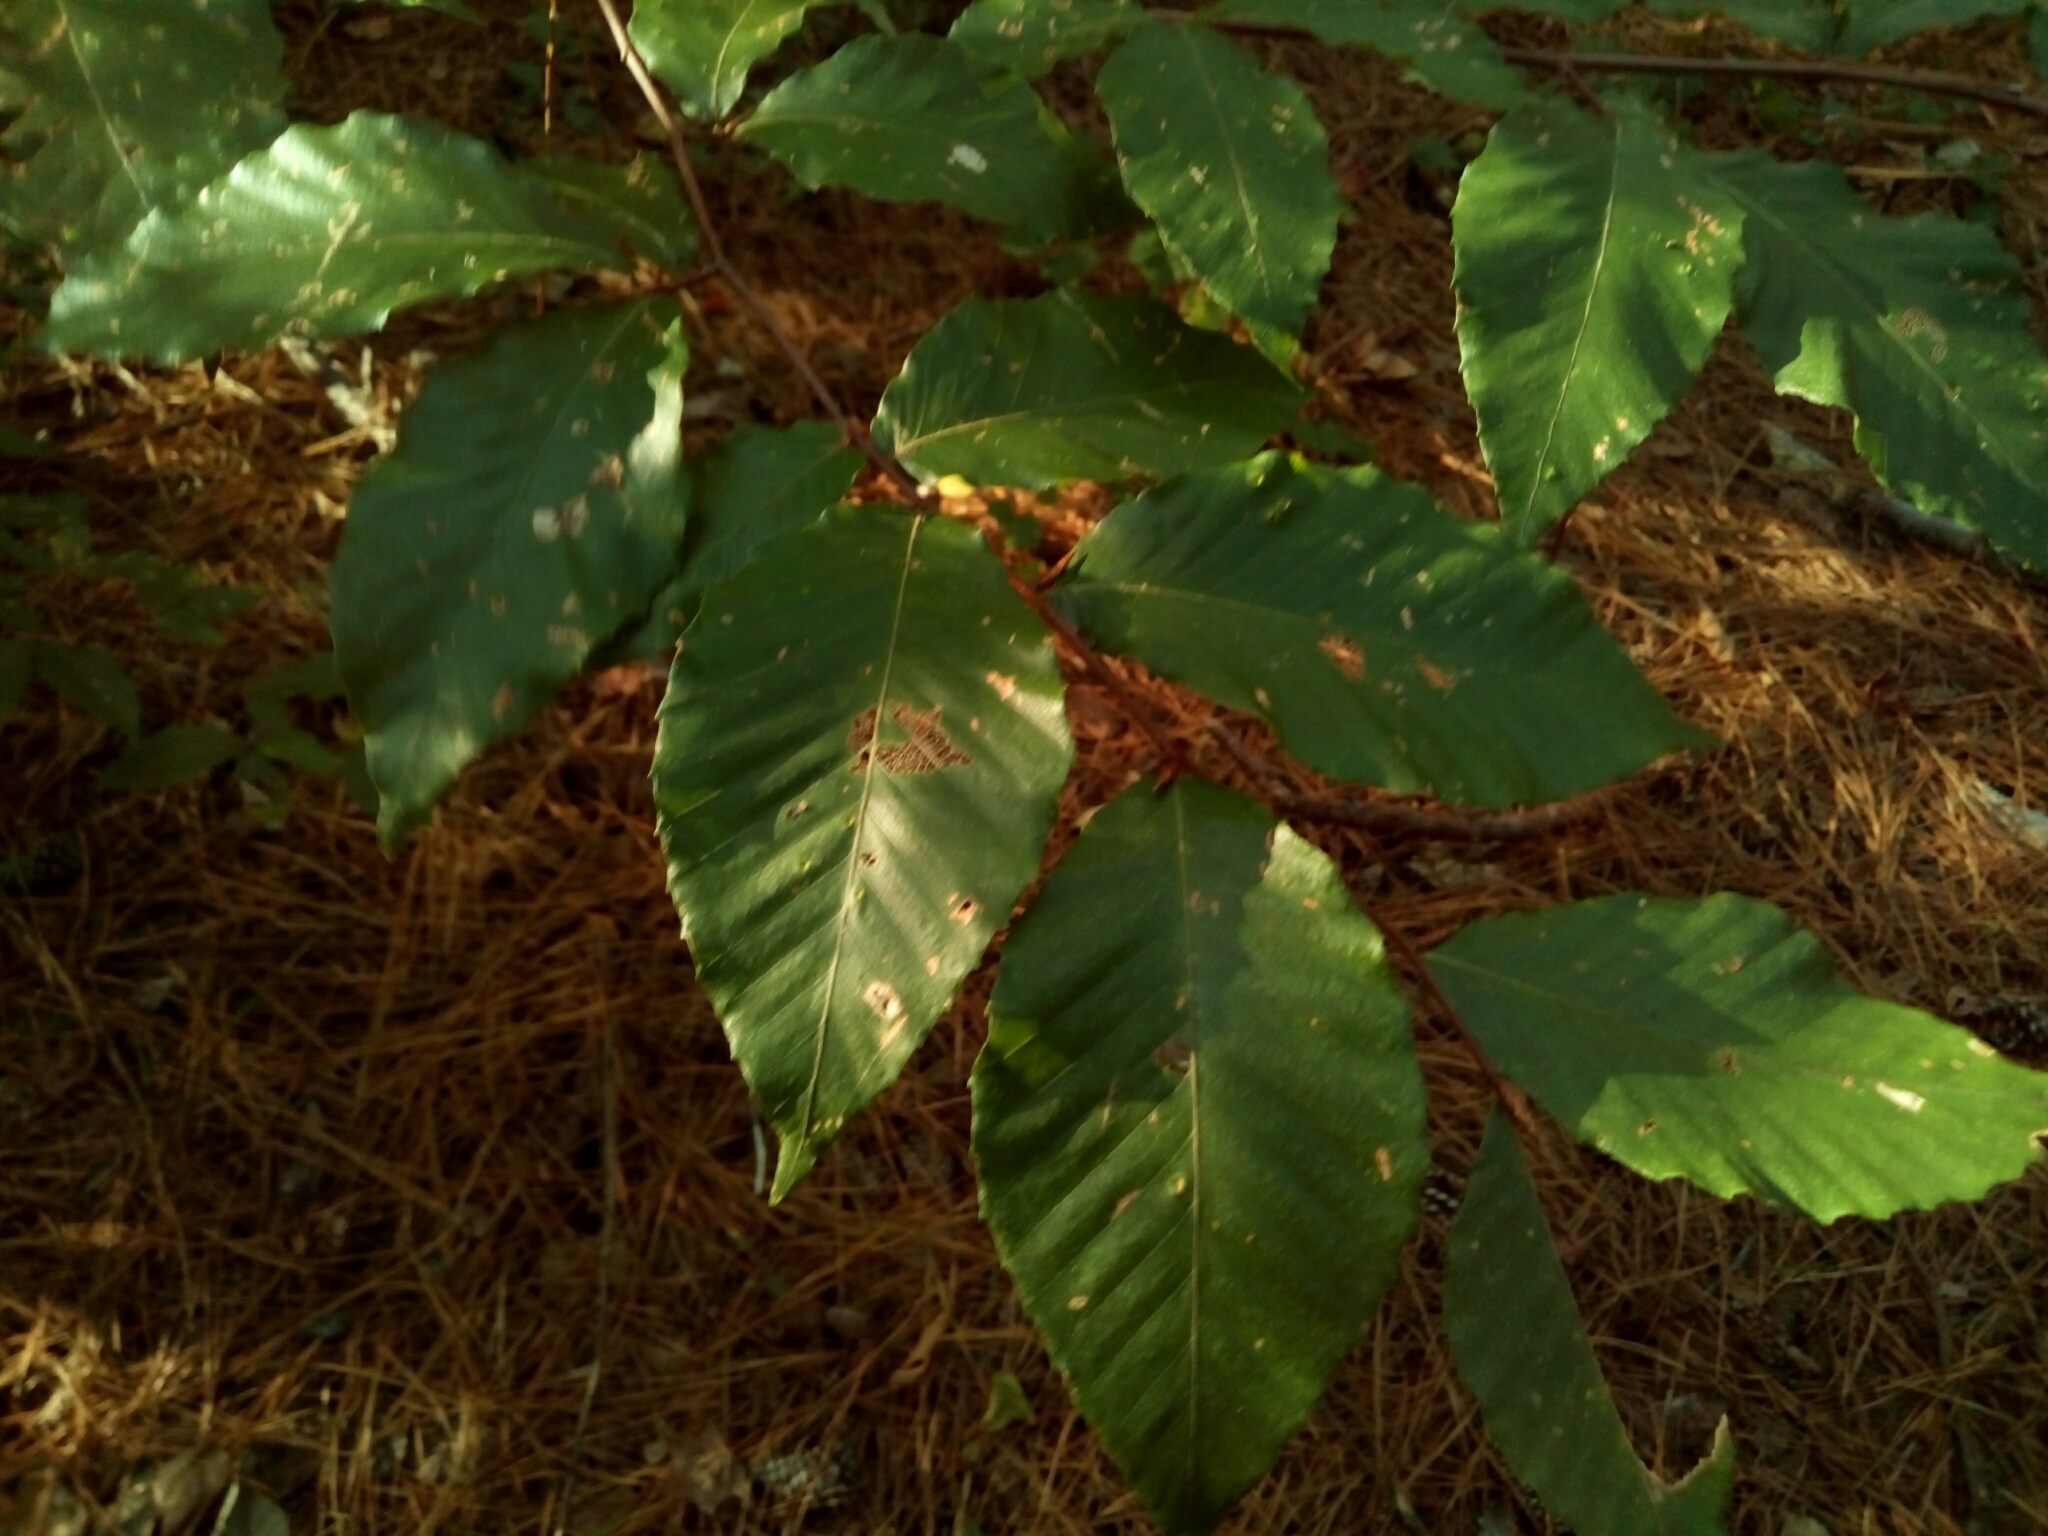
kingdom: Plantae
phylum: Tracheophyta
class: Magnoliopsida
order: Fagales
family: Fagaceae
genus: Fagus
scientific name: Fagus grandifolia
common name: American beech
